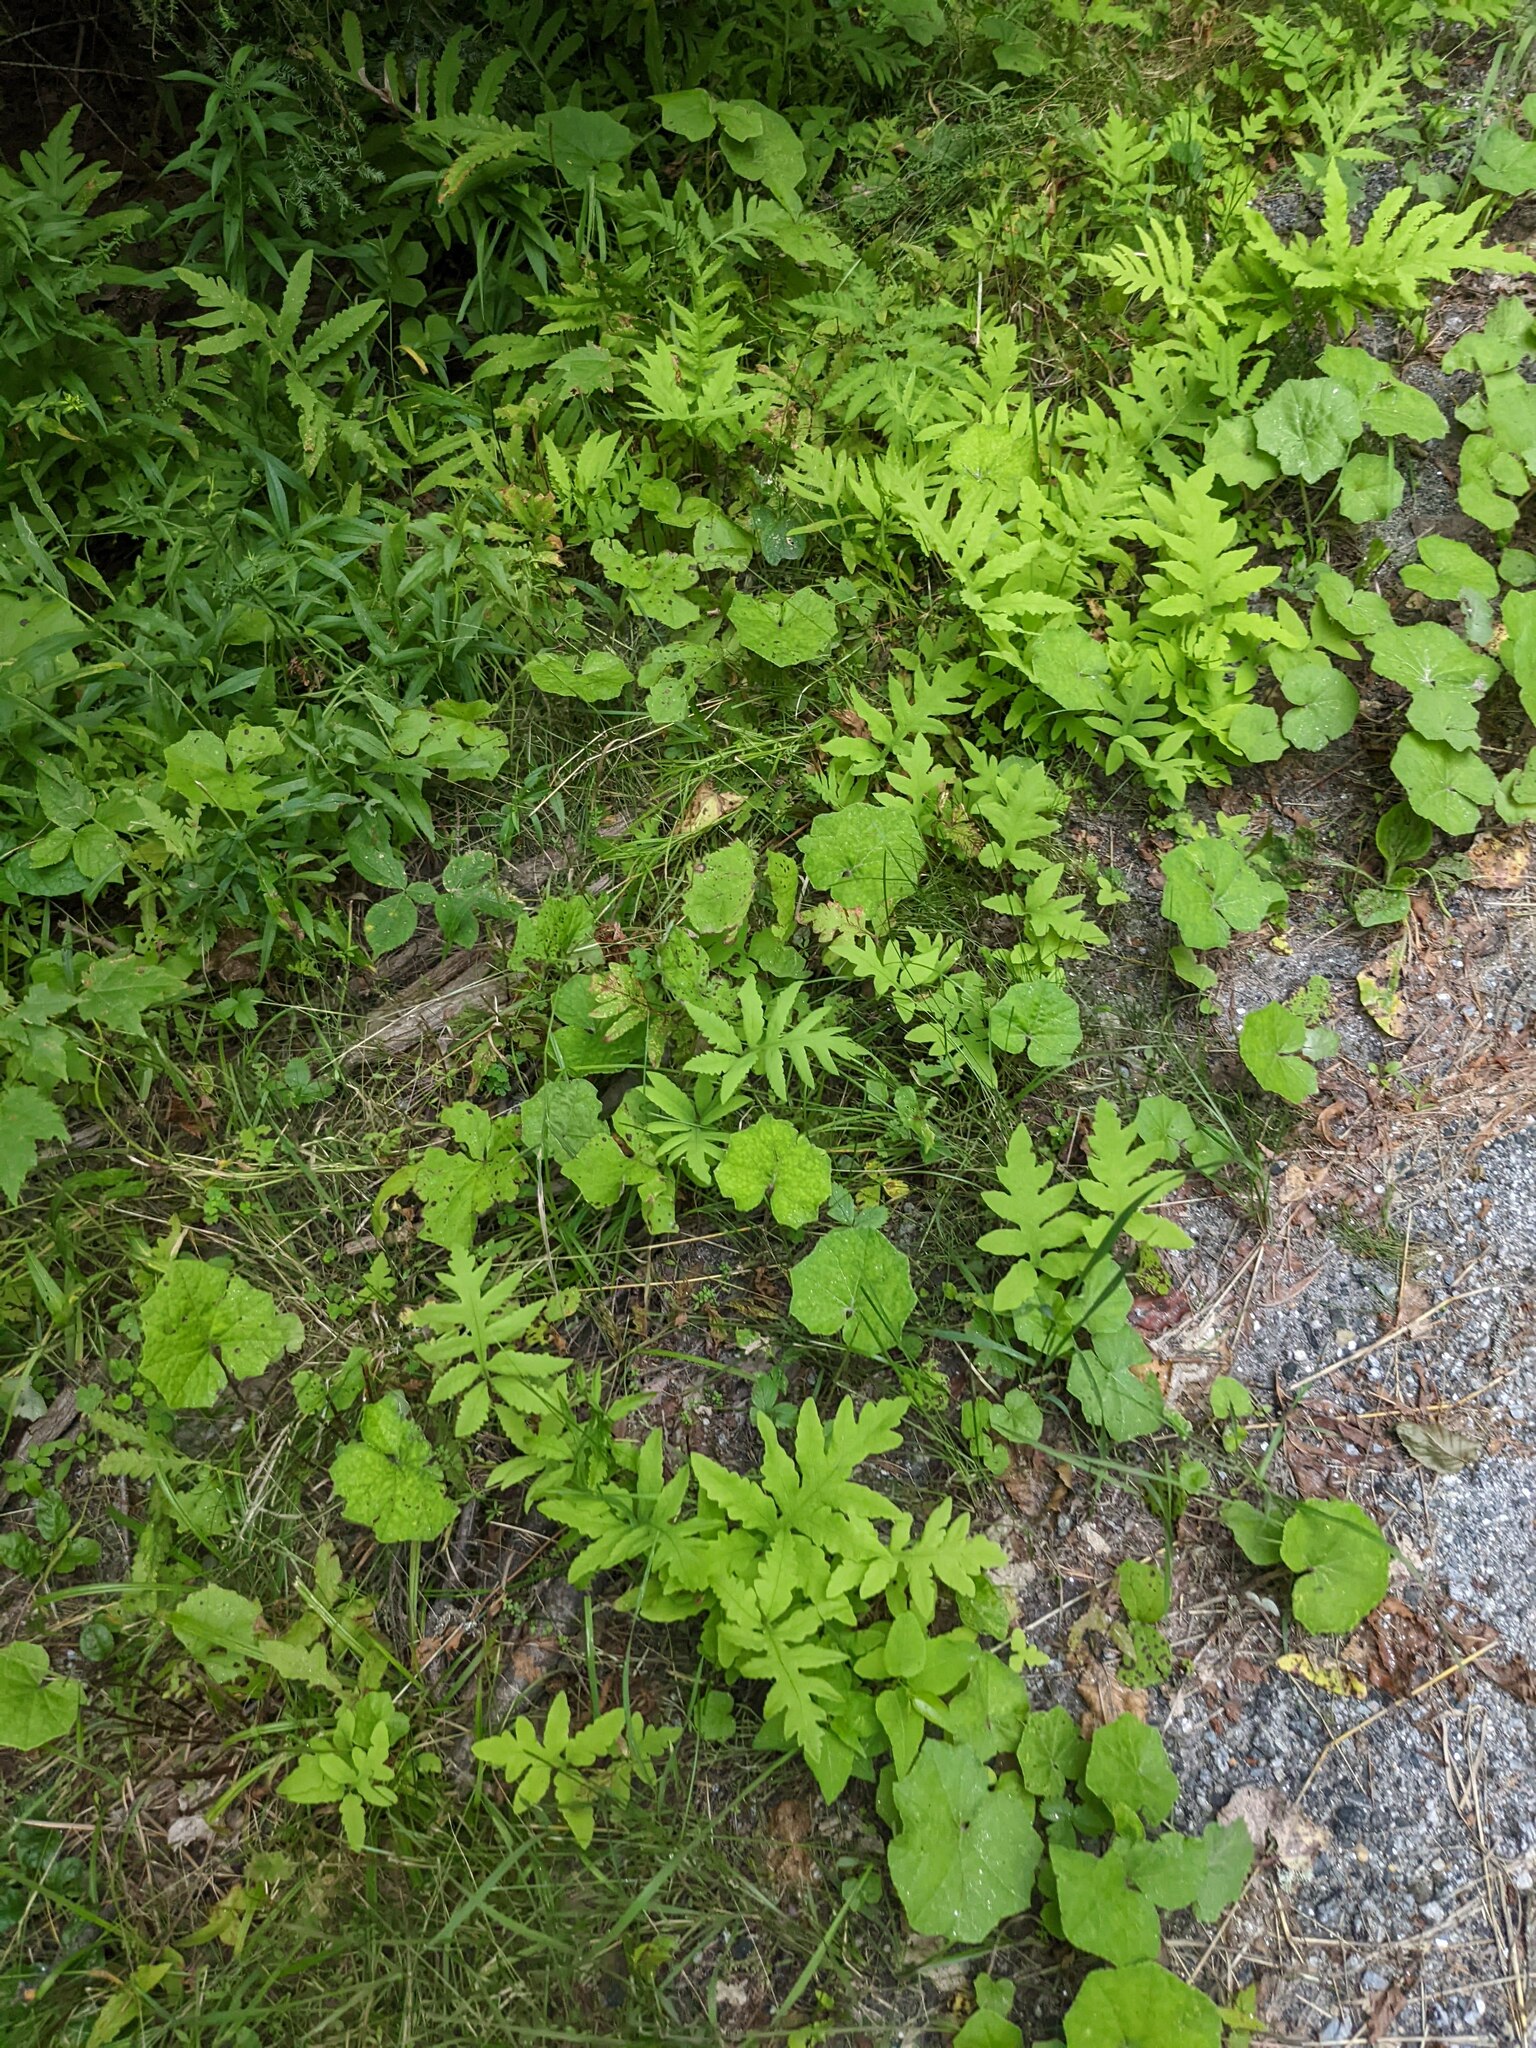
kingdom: Plantae
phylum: Tracheophyta
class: Polypodiopsida
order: Polypodiales
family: Onocleaceae
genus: Onoclea
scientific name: Onoclea sensibilis
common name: Sensitive fern
